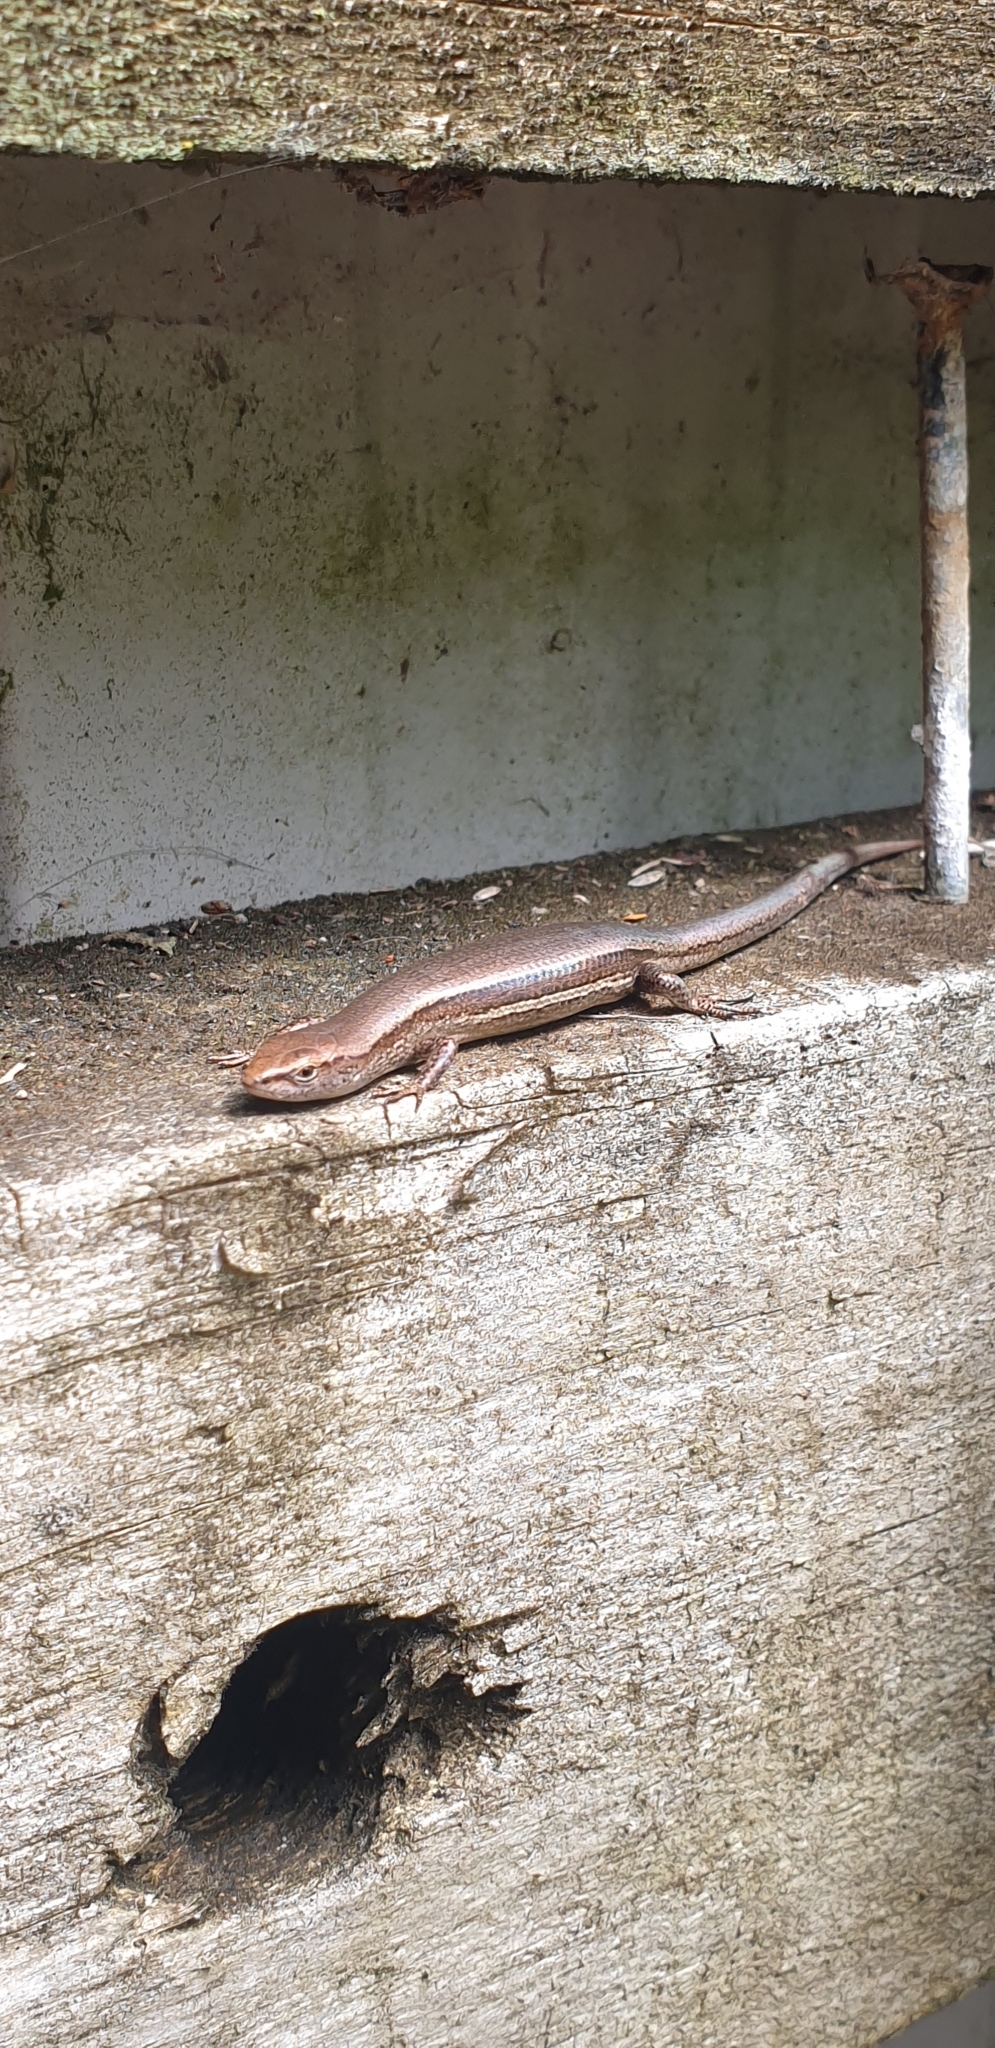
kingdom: Animalia
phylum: Chordata
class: Squamata
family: Scincidae
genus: Lampropholis
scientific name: Lampropholis delicata
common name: Plague skink
